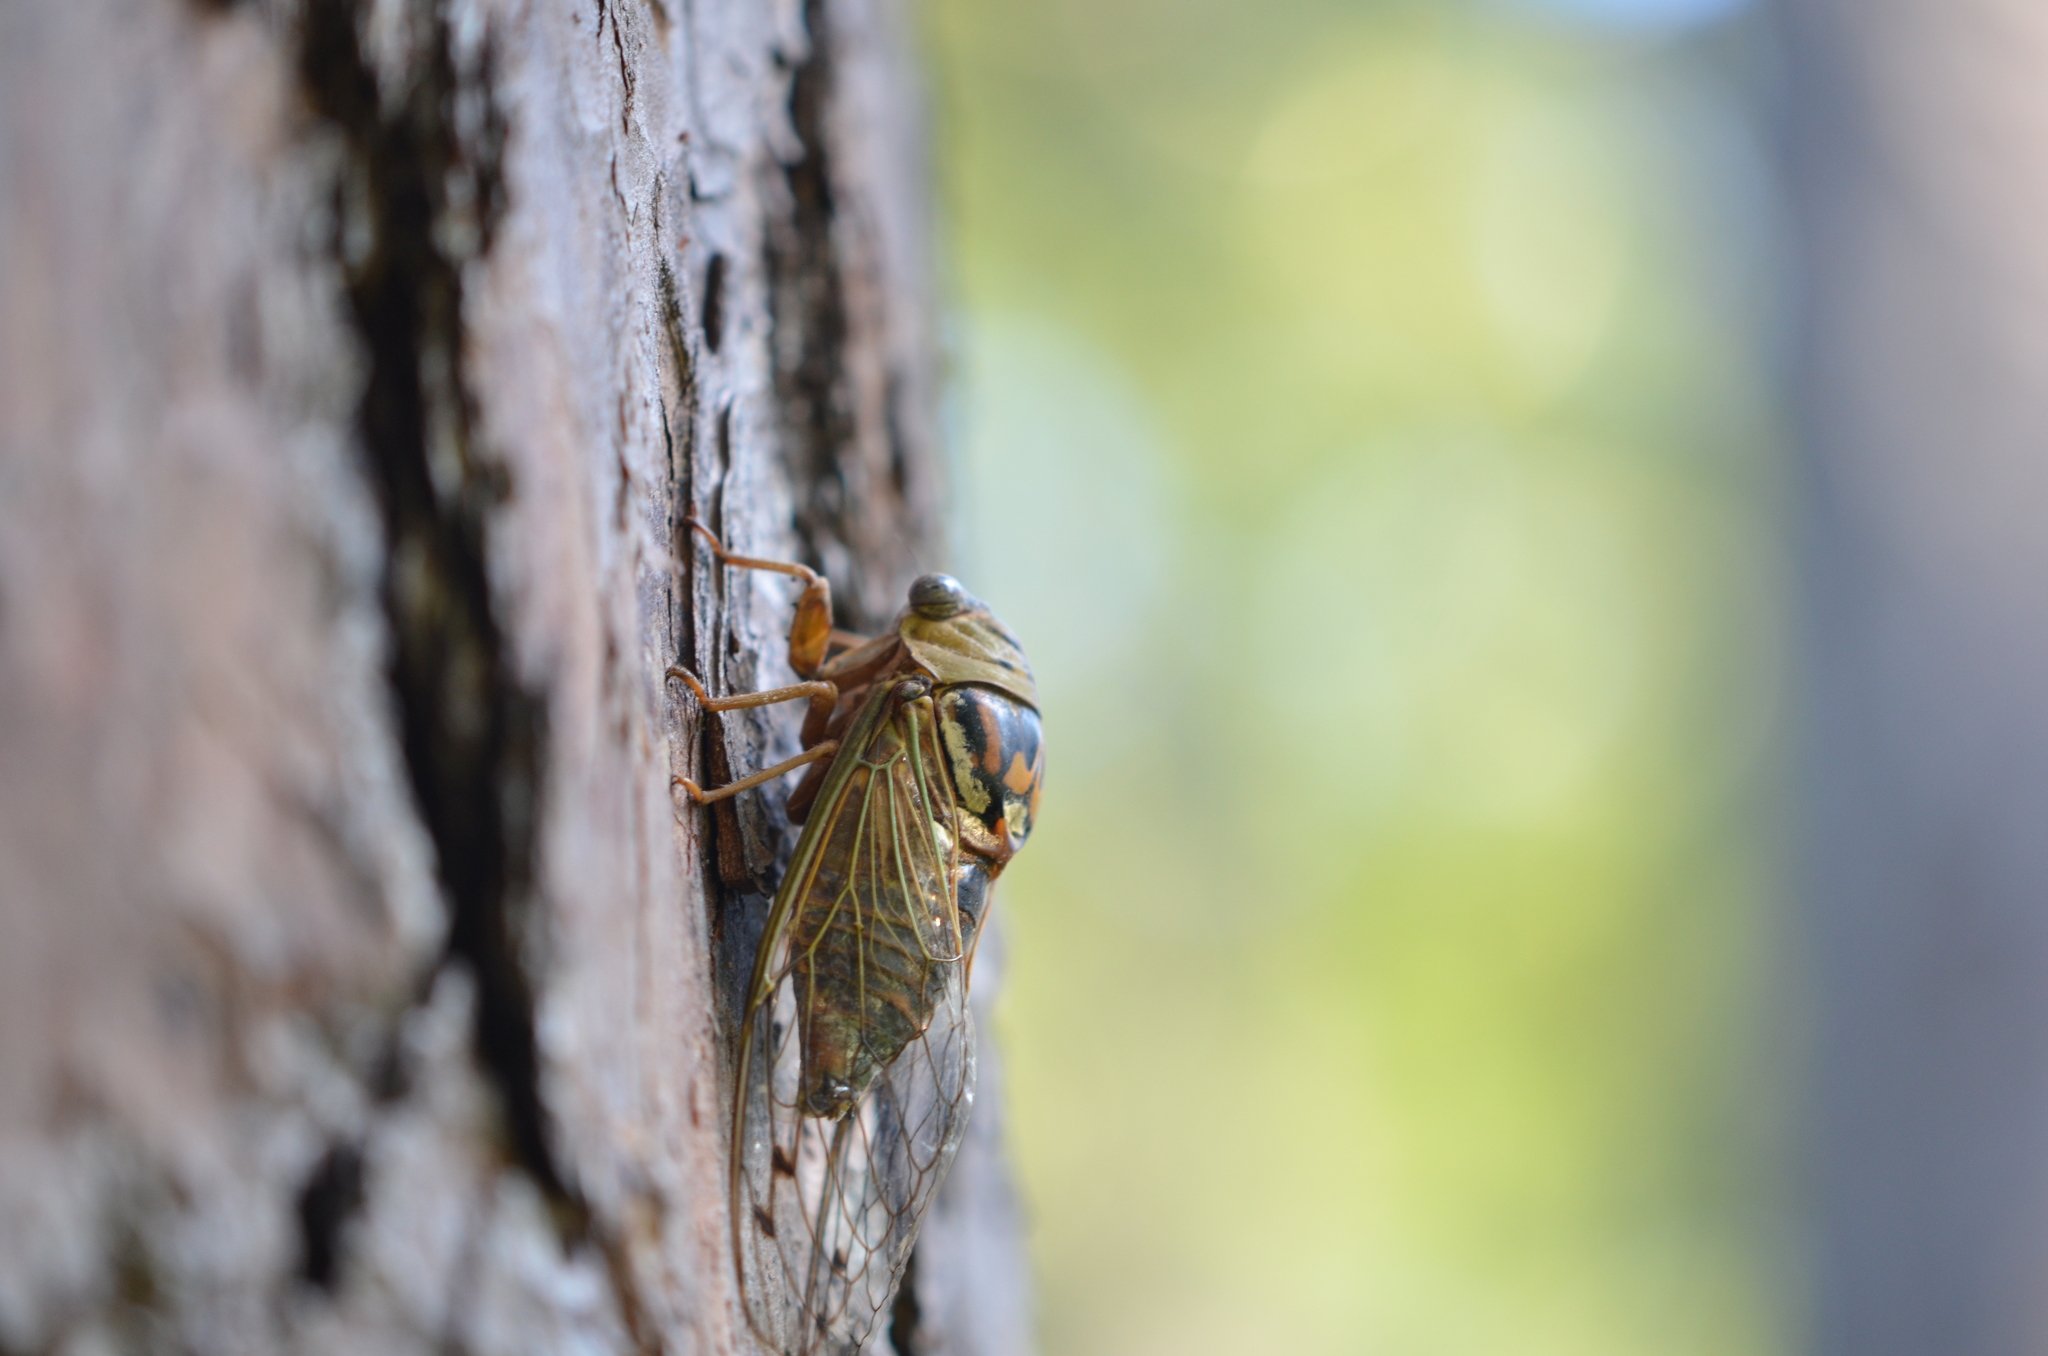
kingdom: Animalia
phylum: Arthropoda
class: Insecta
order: Hemiptera
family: Cicadidae
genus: Megatibicen
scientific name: Megatibicen resh
